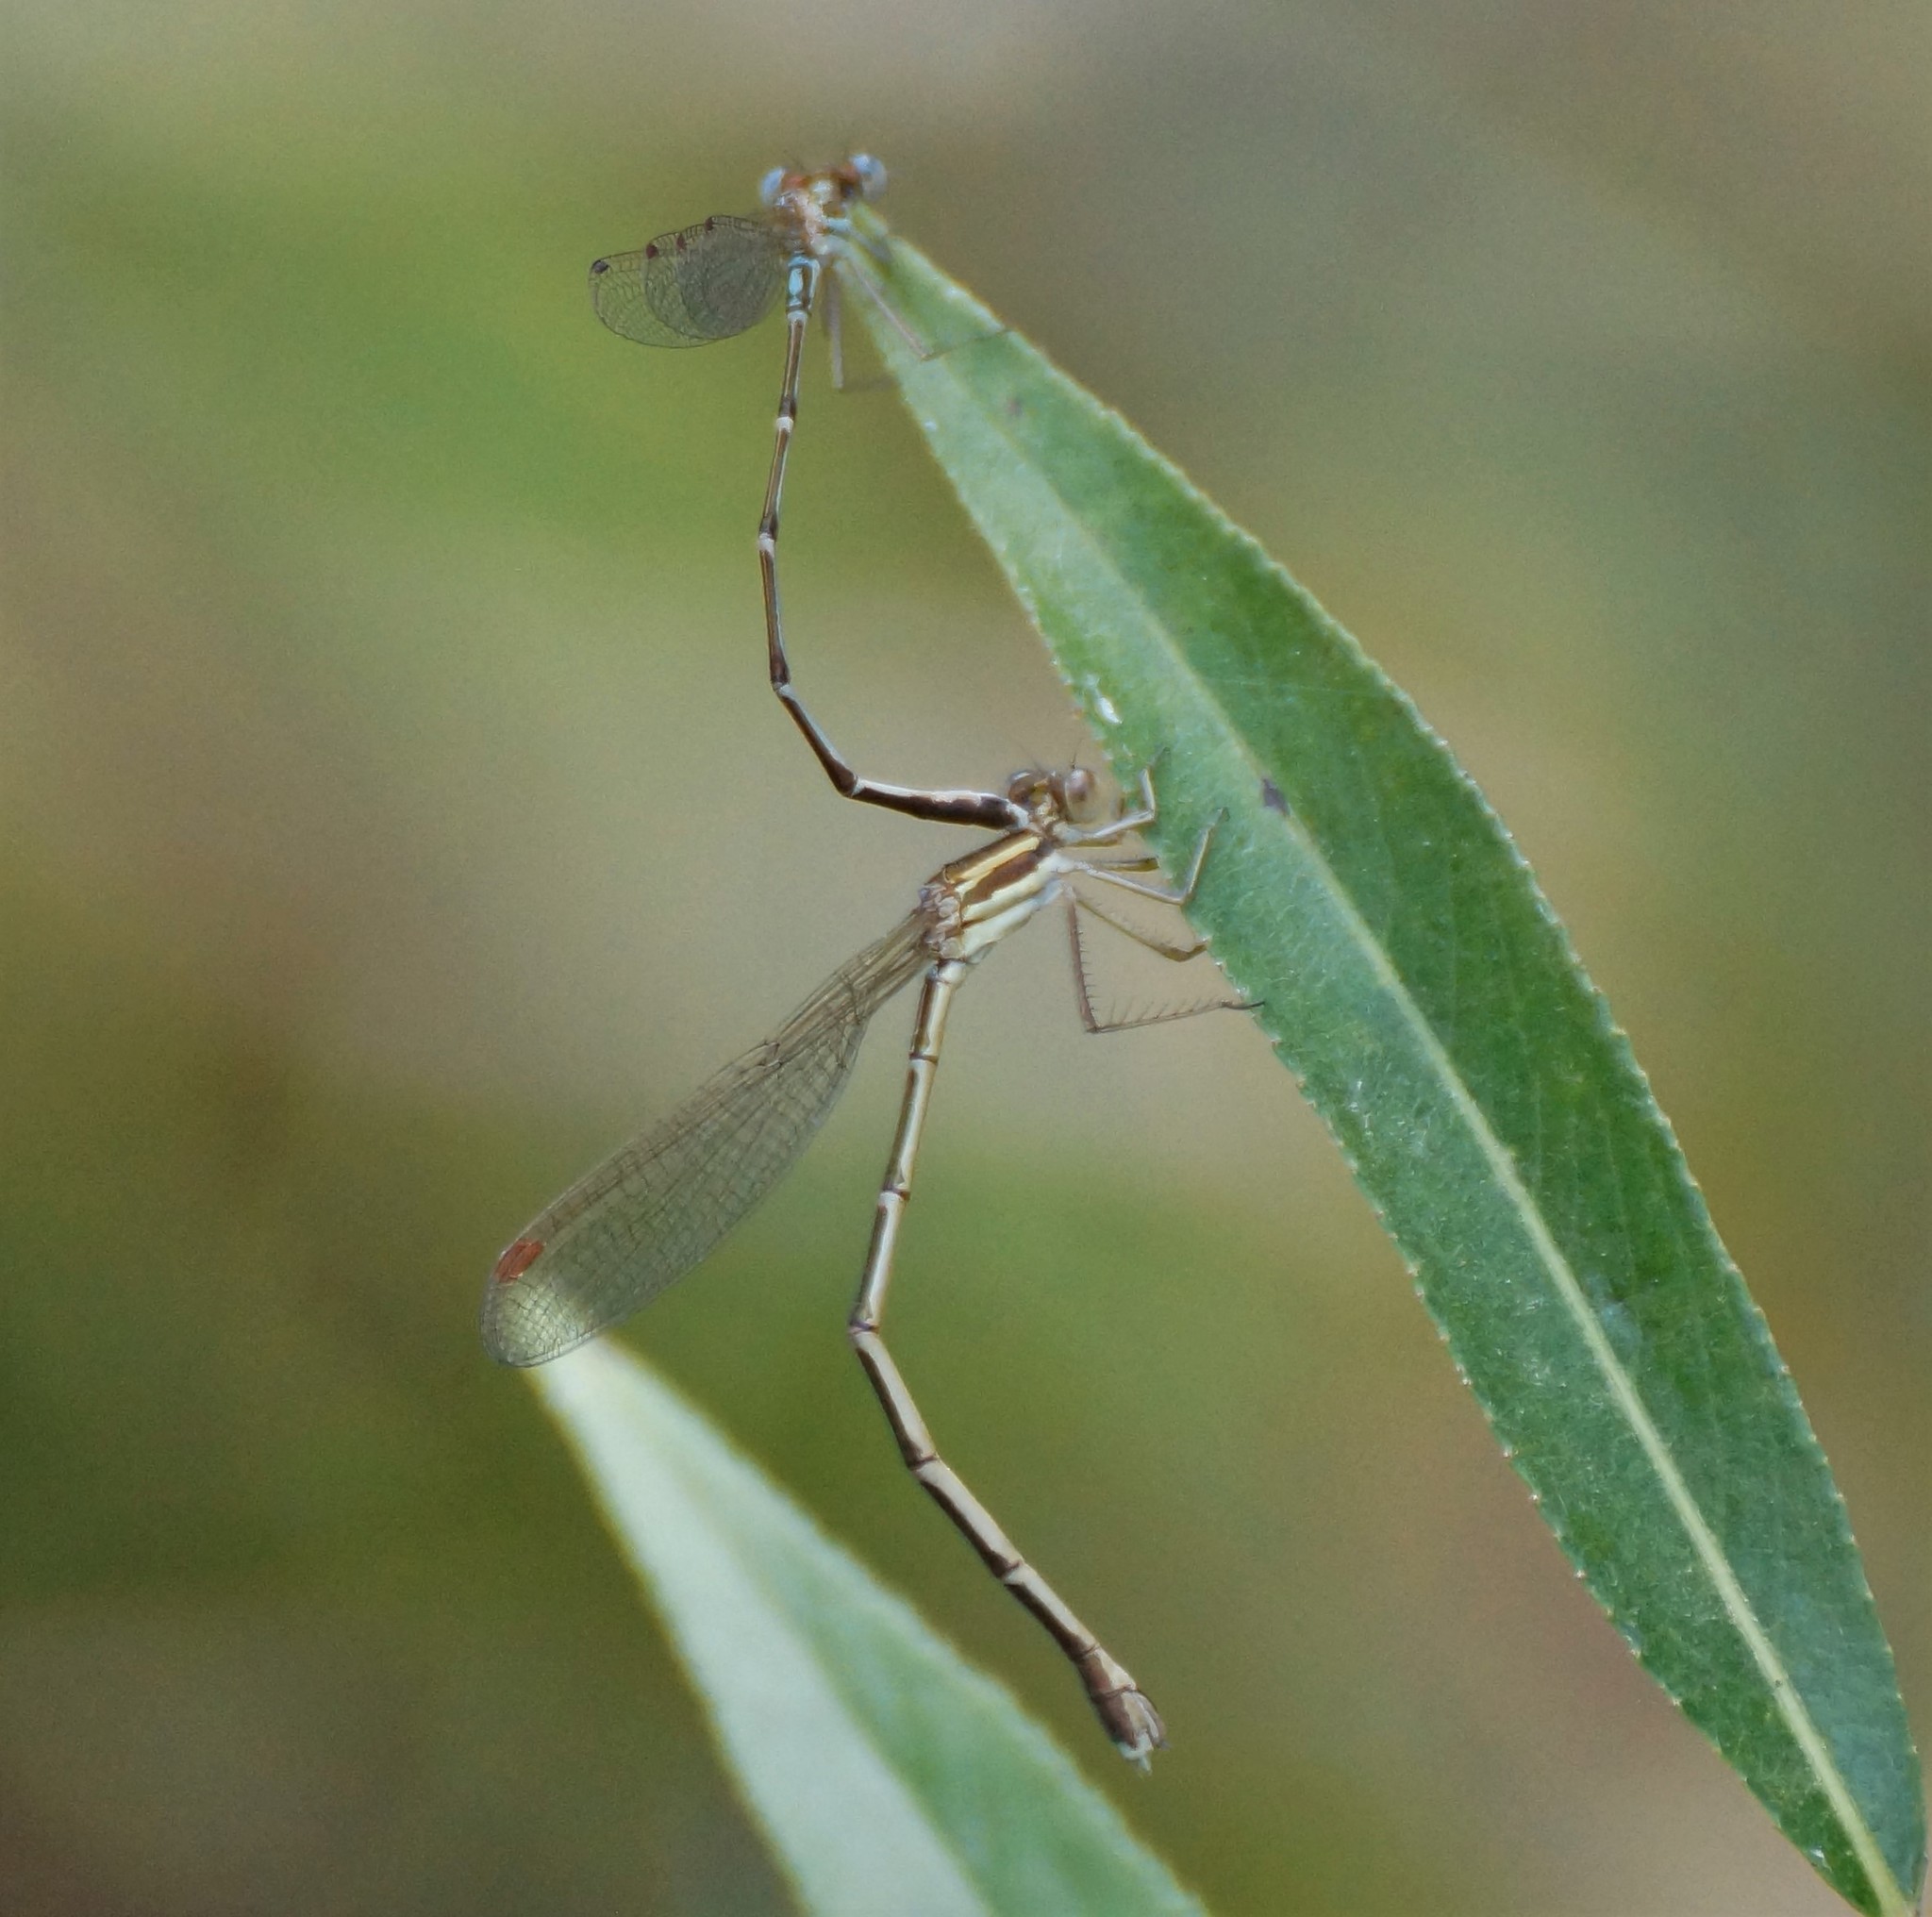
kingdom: Animalia
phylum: Arthropoda
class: Insecta
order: Odonata
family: Lestidae
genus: Austrolestes
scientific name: Austrolestes analis
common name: Slender ringtail
